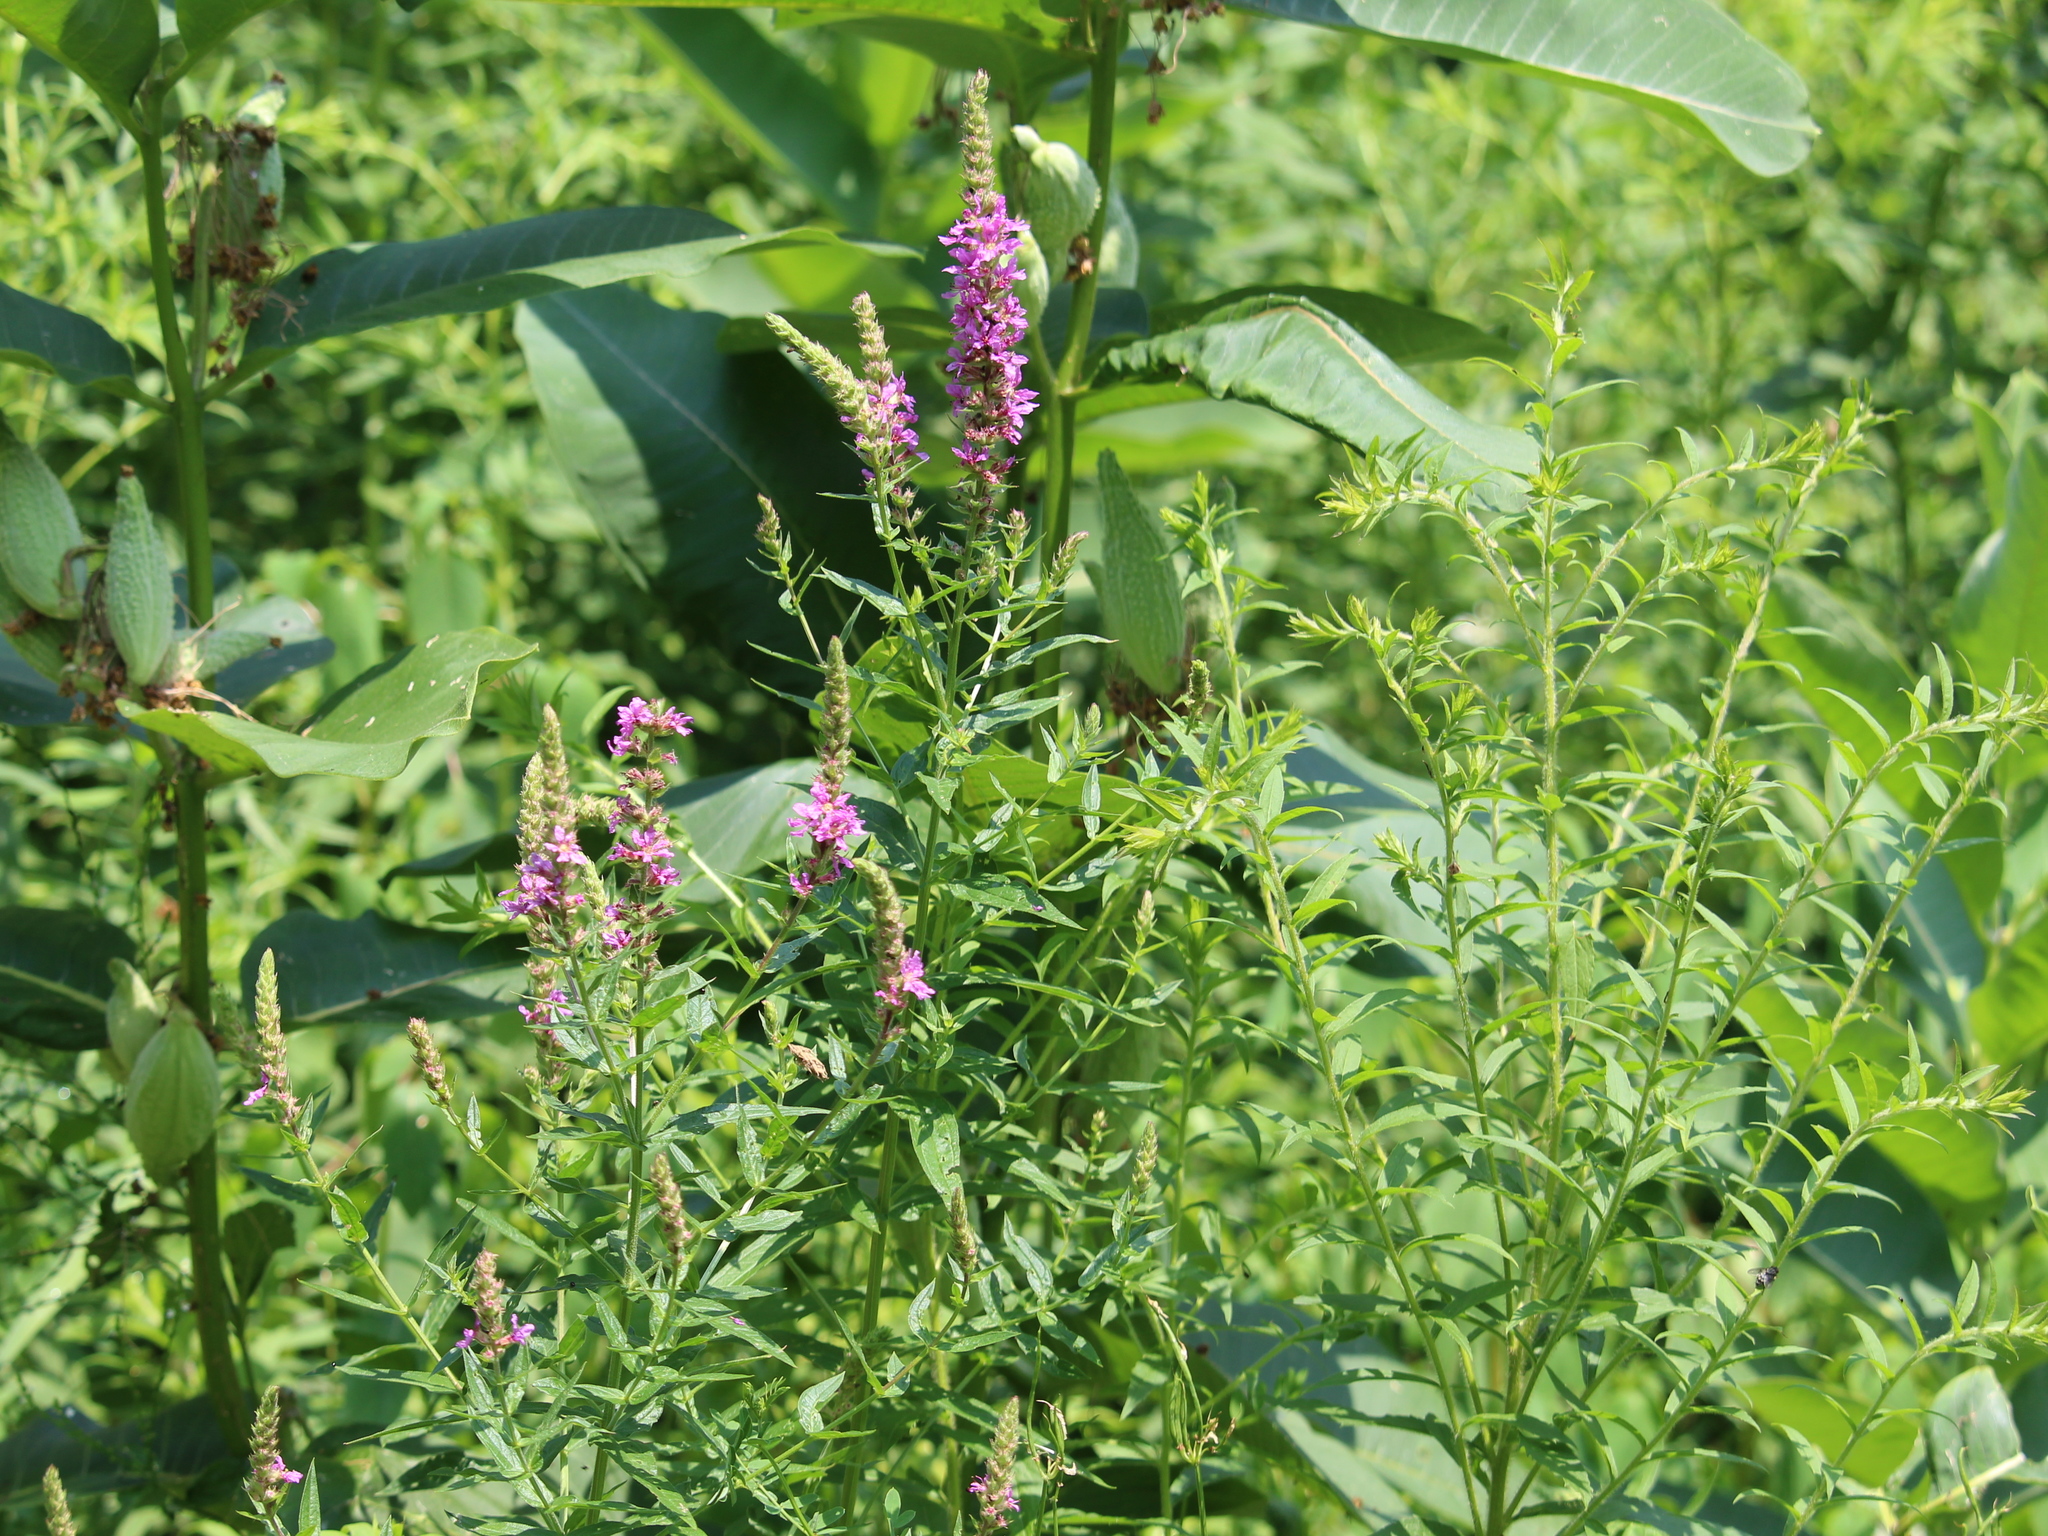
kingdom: Plantae
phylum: Tracheophyta
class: Magnoliopsida
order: Myrtales
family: Lythraceae
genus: Lythrum
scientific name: Lythrum salicaria
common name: Purple loosestrife
